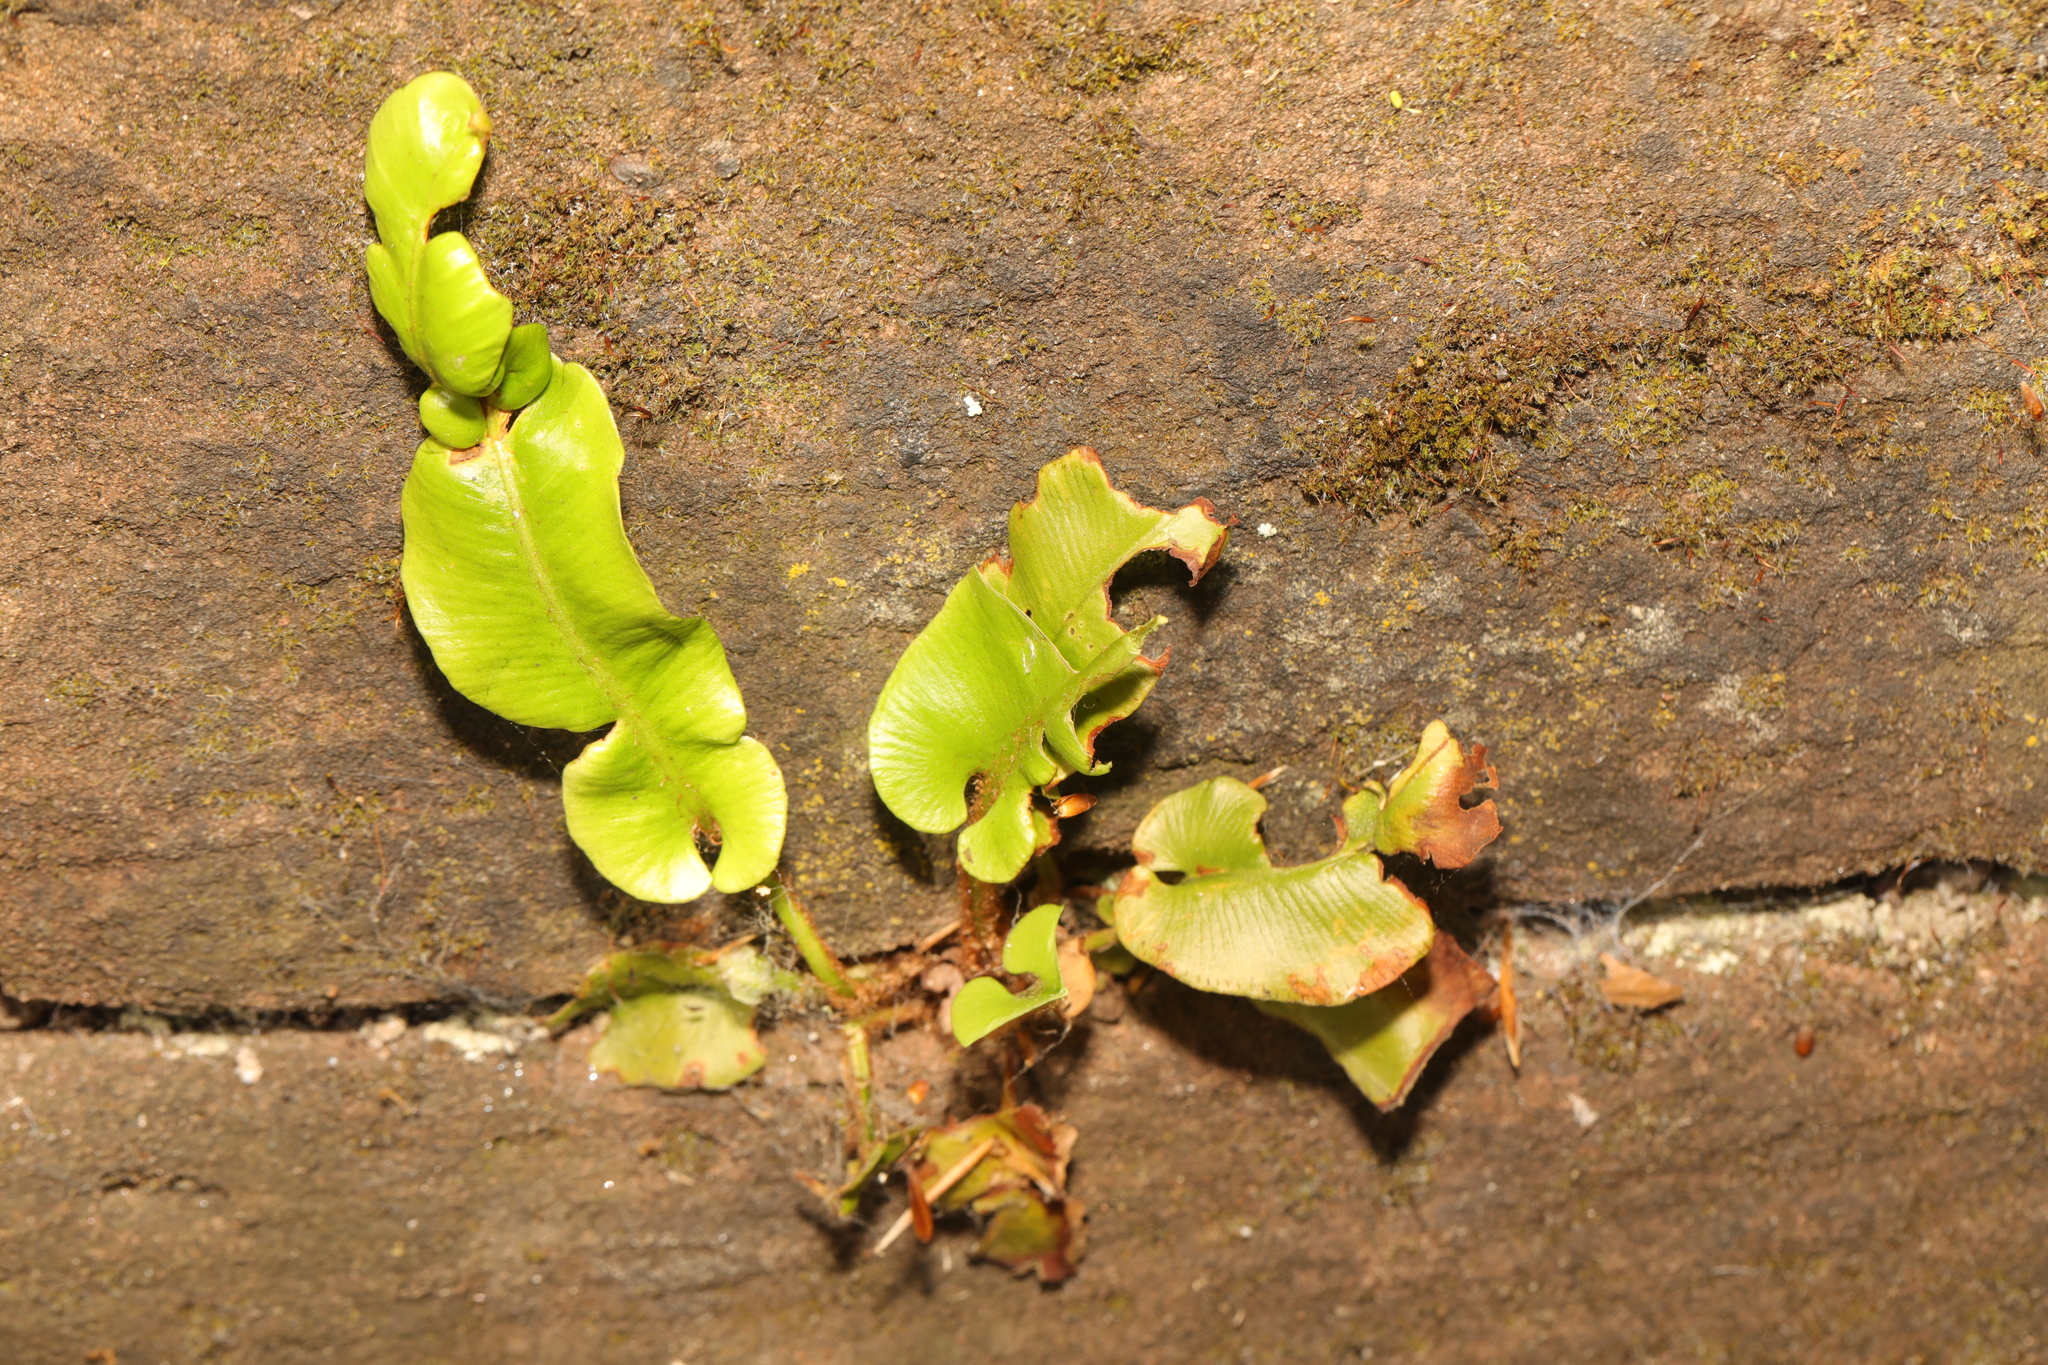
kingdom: Plantae
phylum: Tracheophyta
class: Polypodiopsida
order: Polypodiales
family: Aspleniaceae
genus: Asplenium
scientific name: Asplenium scolopendrium
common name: Hart's-tongue fern
